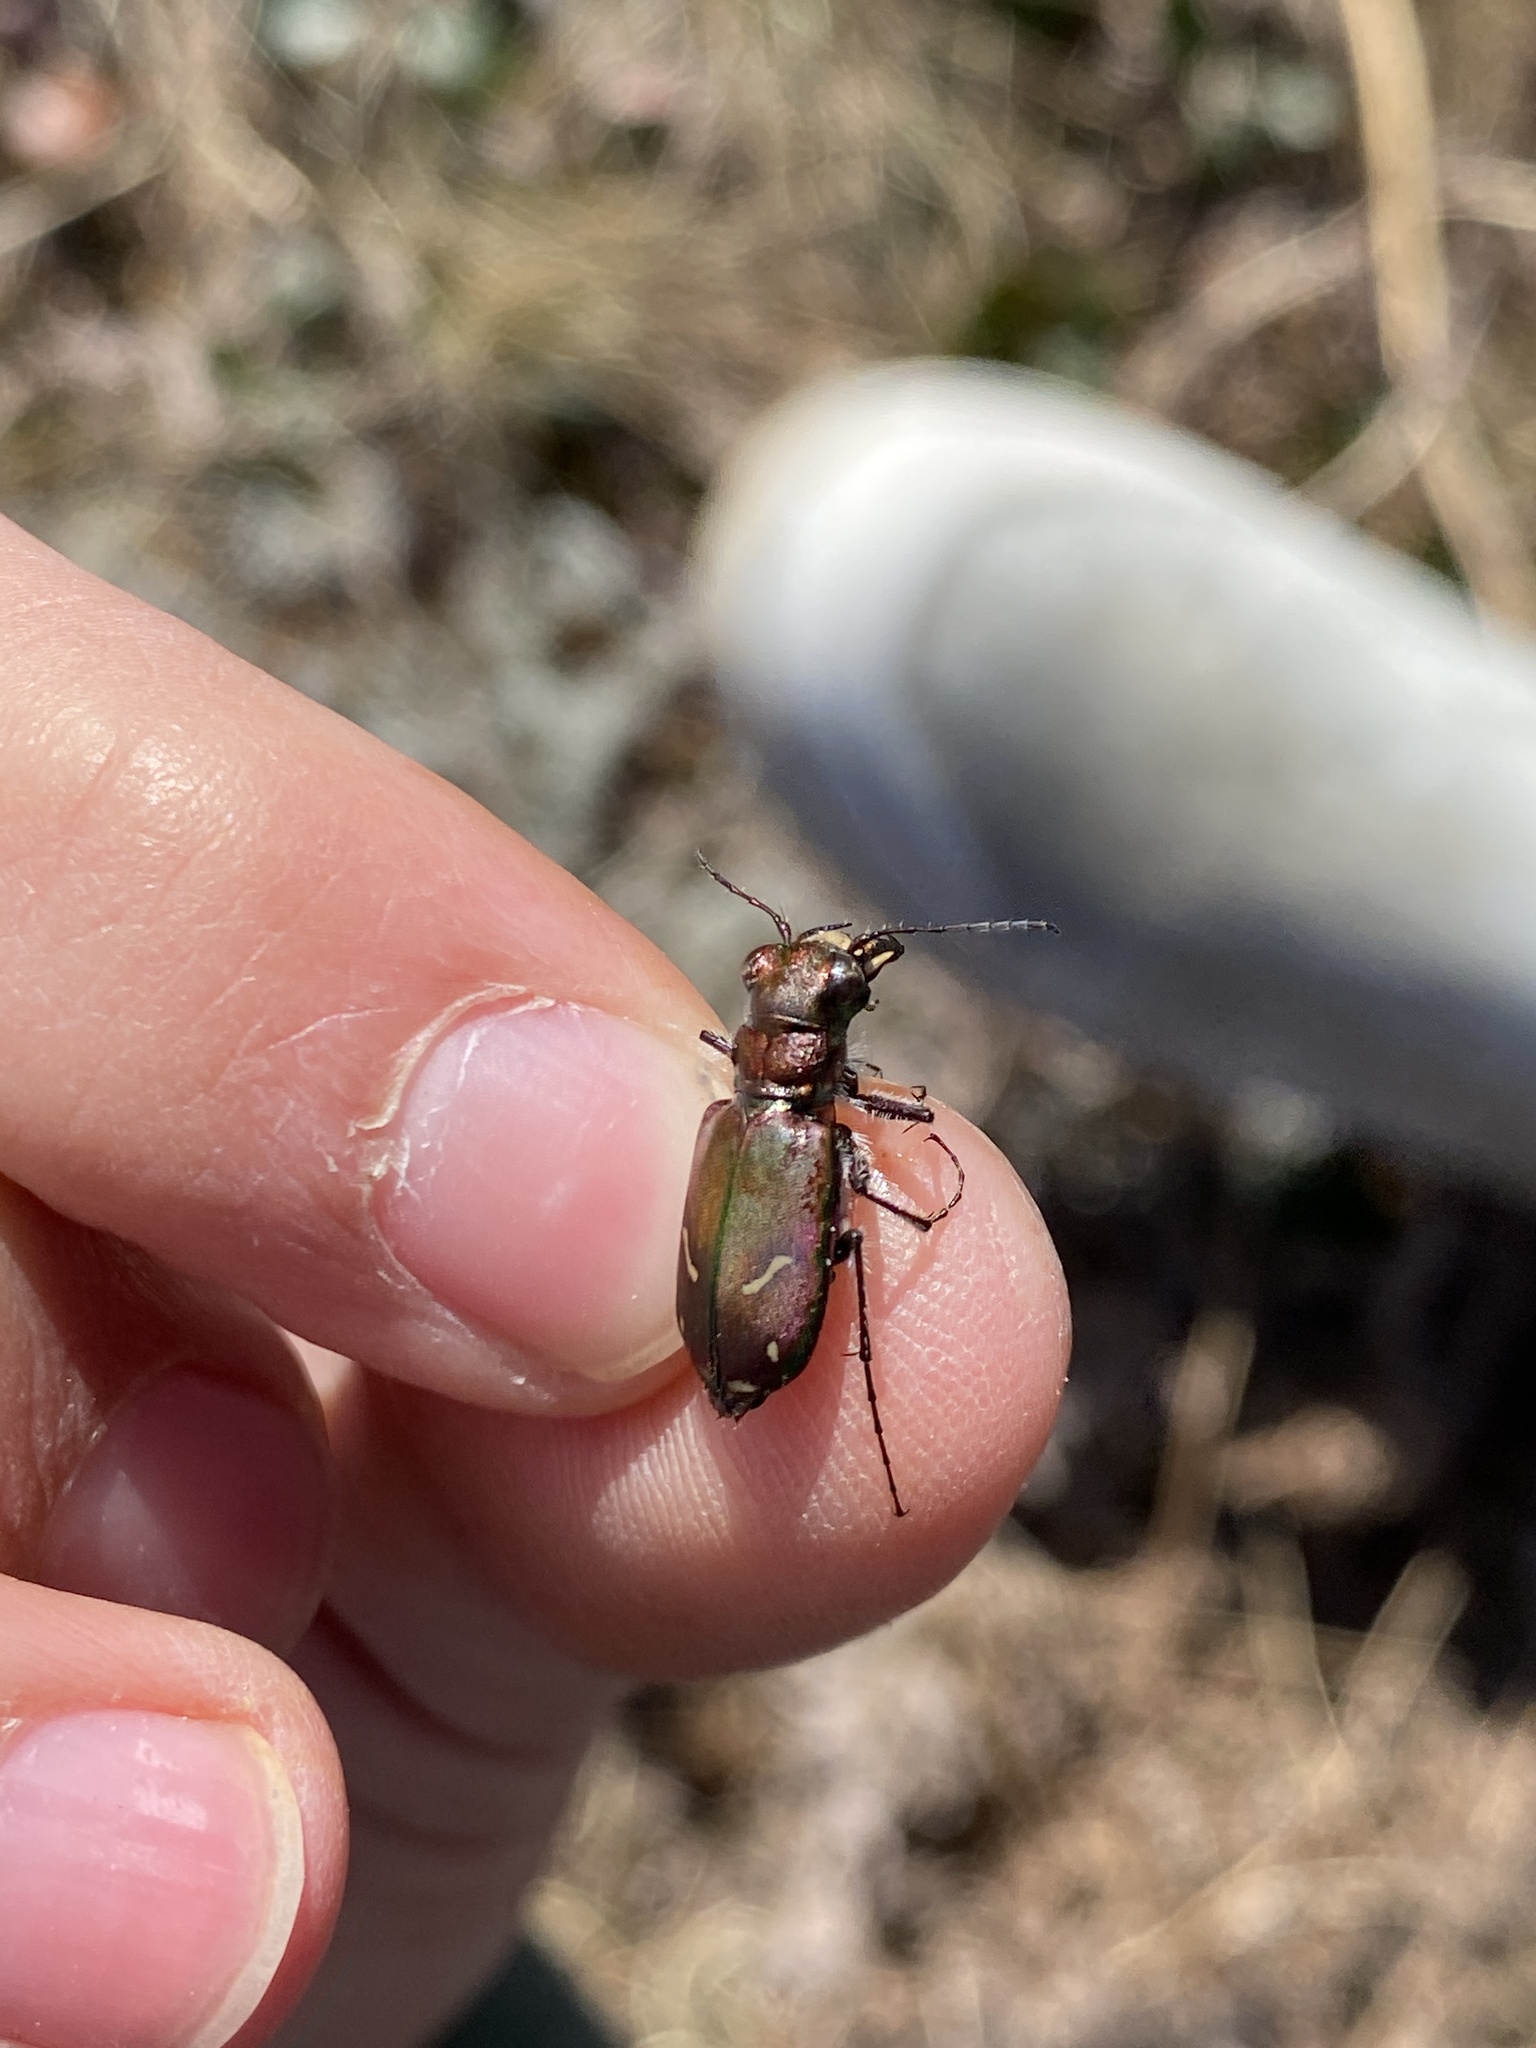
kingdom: Animalia
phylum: Arthropoda
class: Insecta
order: Coleoptera
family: Carabidae
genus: Cicindela
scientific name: Cicindela purpurea
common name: Cow path tiger beetle
